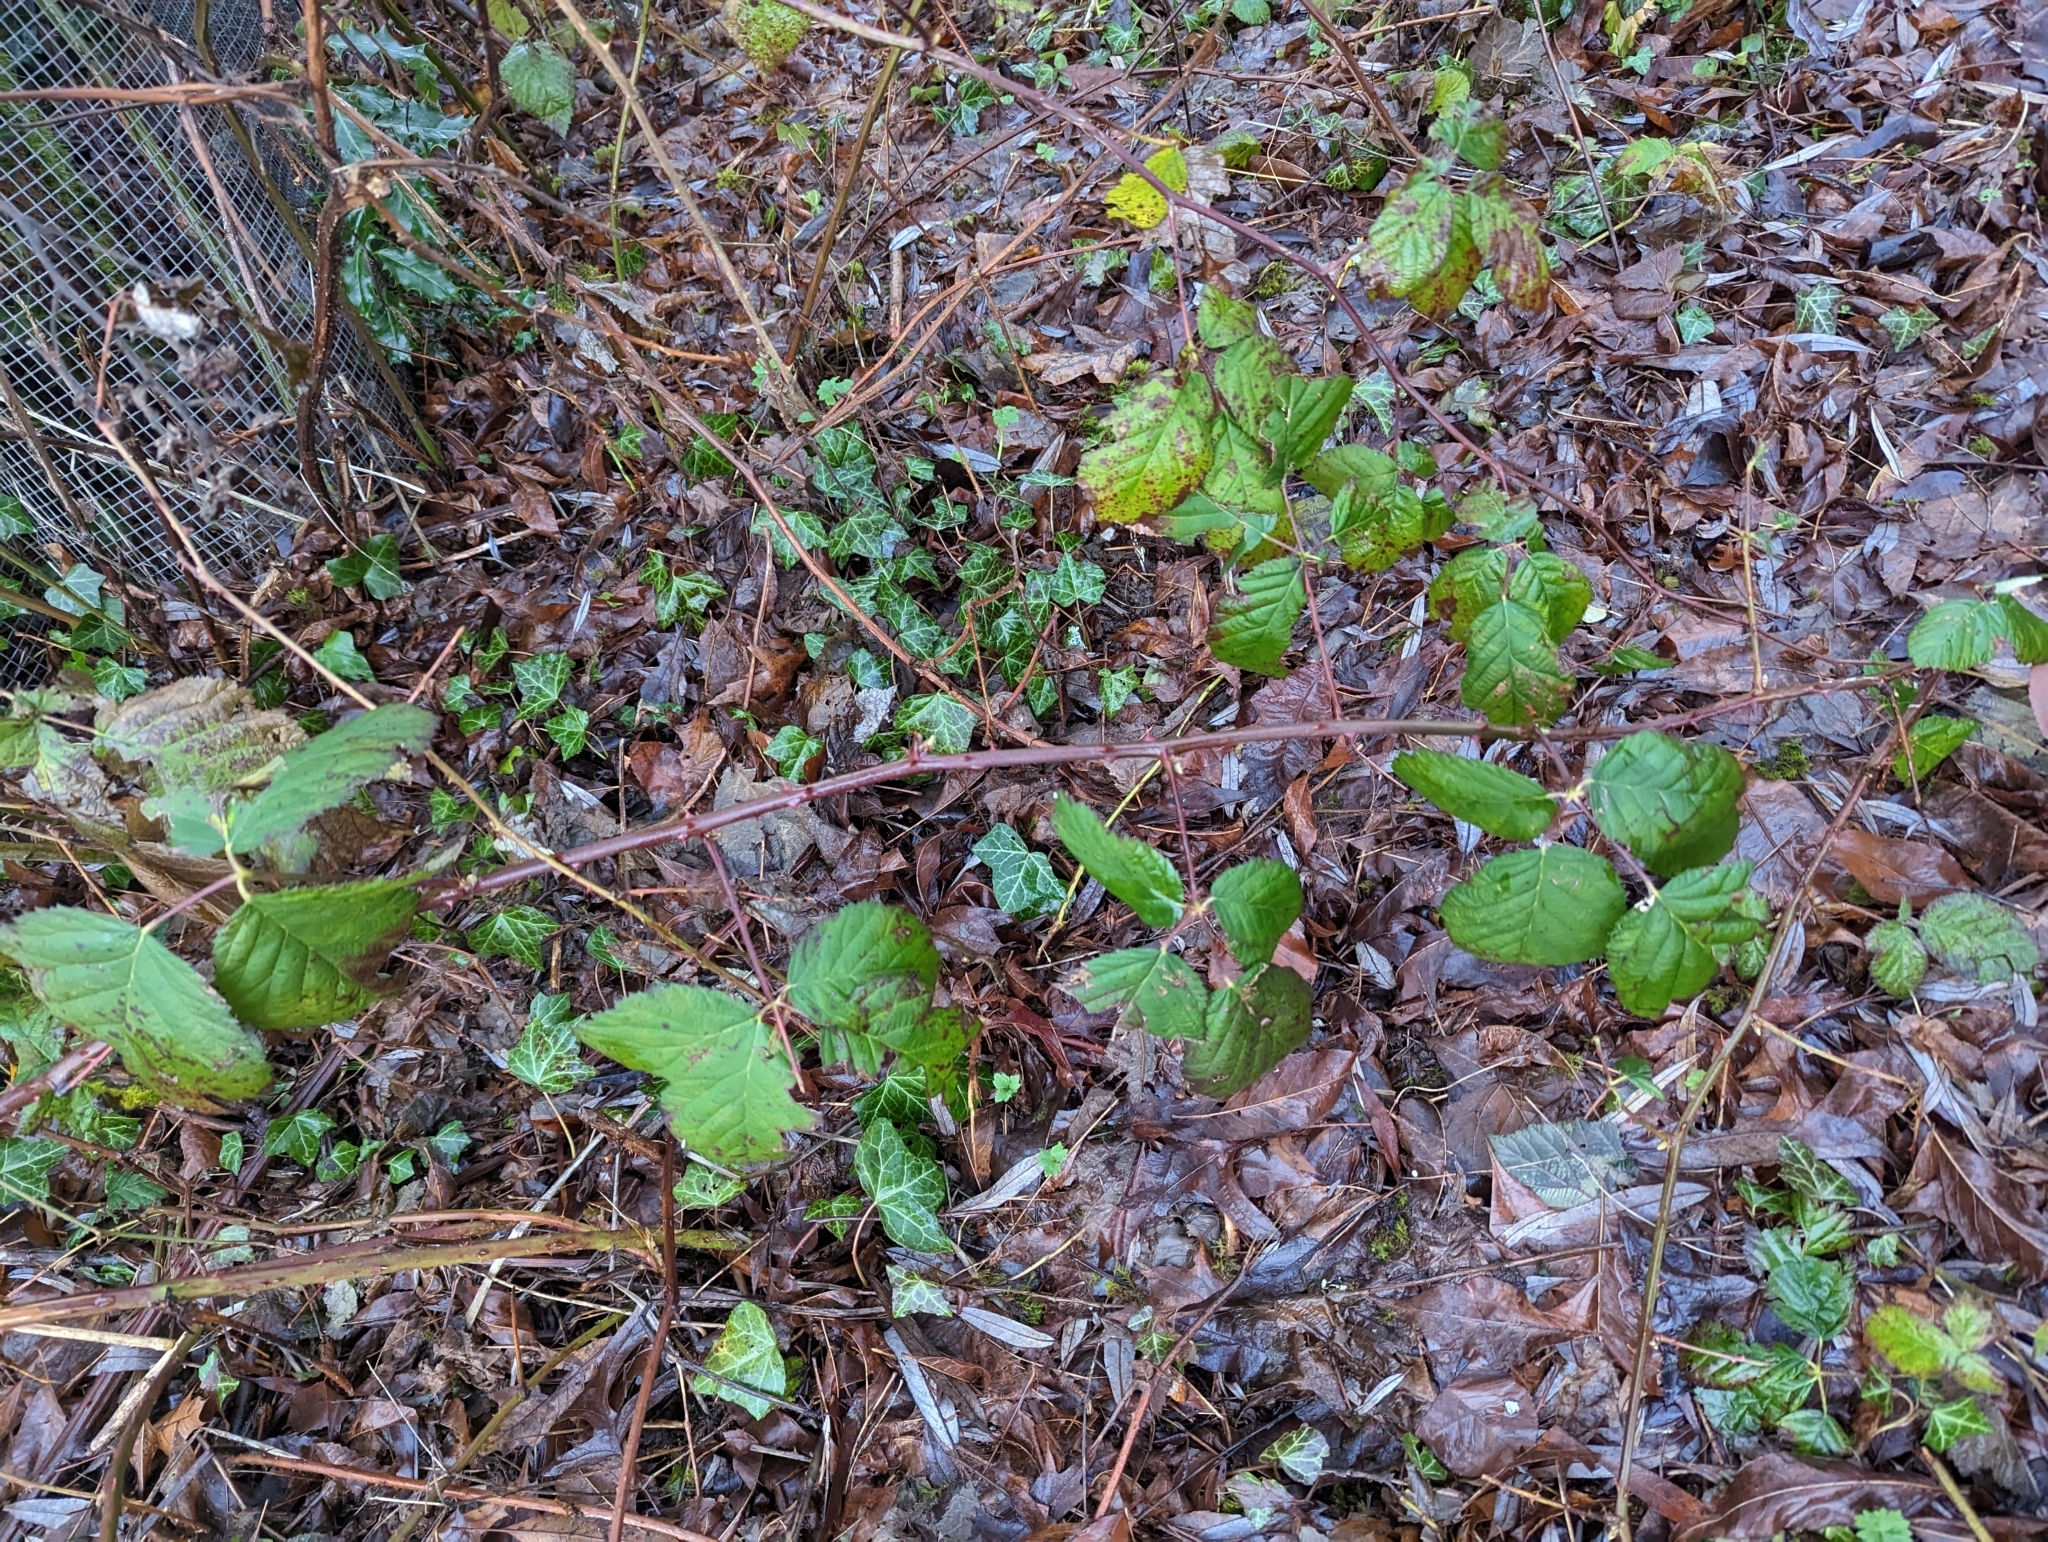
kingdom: Plantae
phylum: Tracheophyta
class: Magnoliopsida
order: Rosales
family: Rosaceae
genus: Rubus
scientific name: Rubus bifrons
